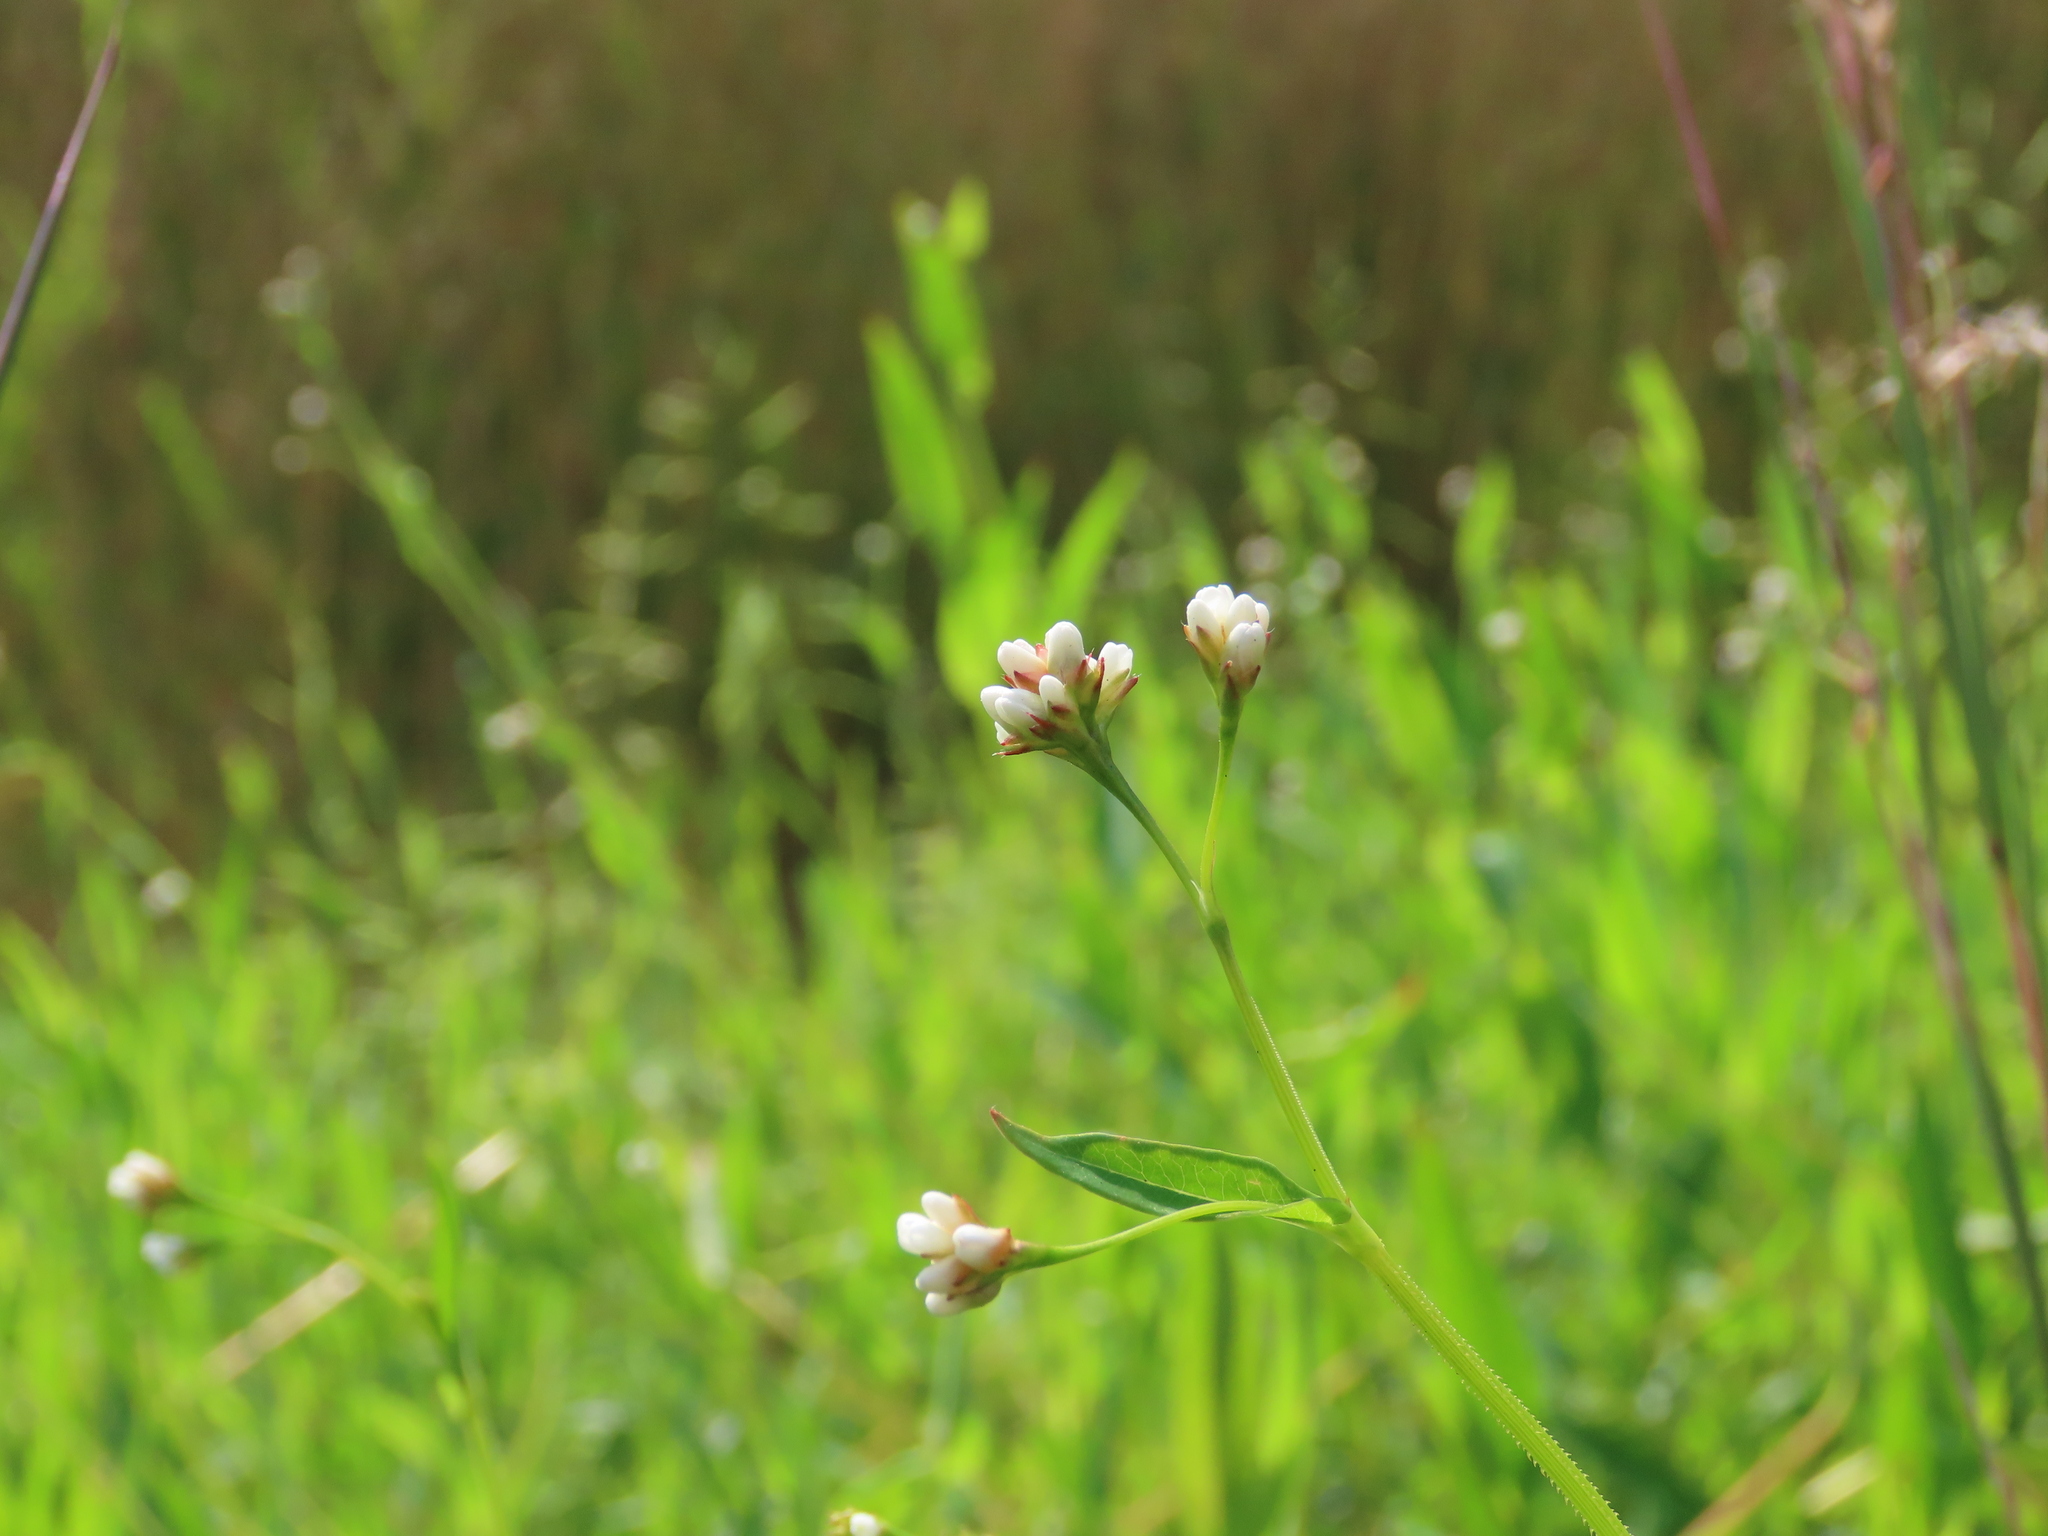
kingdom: Plantae
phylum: Tracheophyta
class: Magnoliopsida
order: Caryophyllales
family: Polygonaceae
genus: Persicaria
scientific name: Persicaria sagittata
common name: American tearthumb
